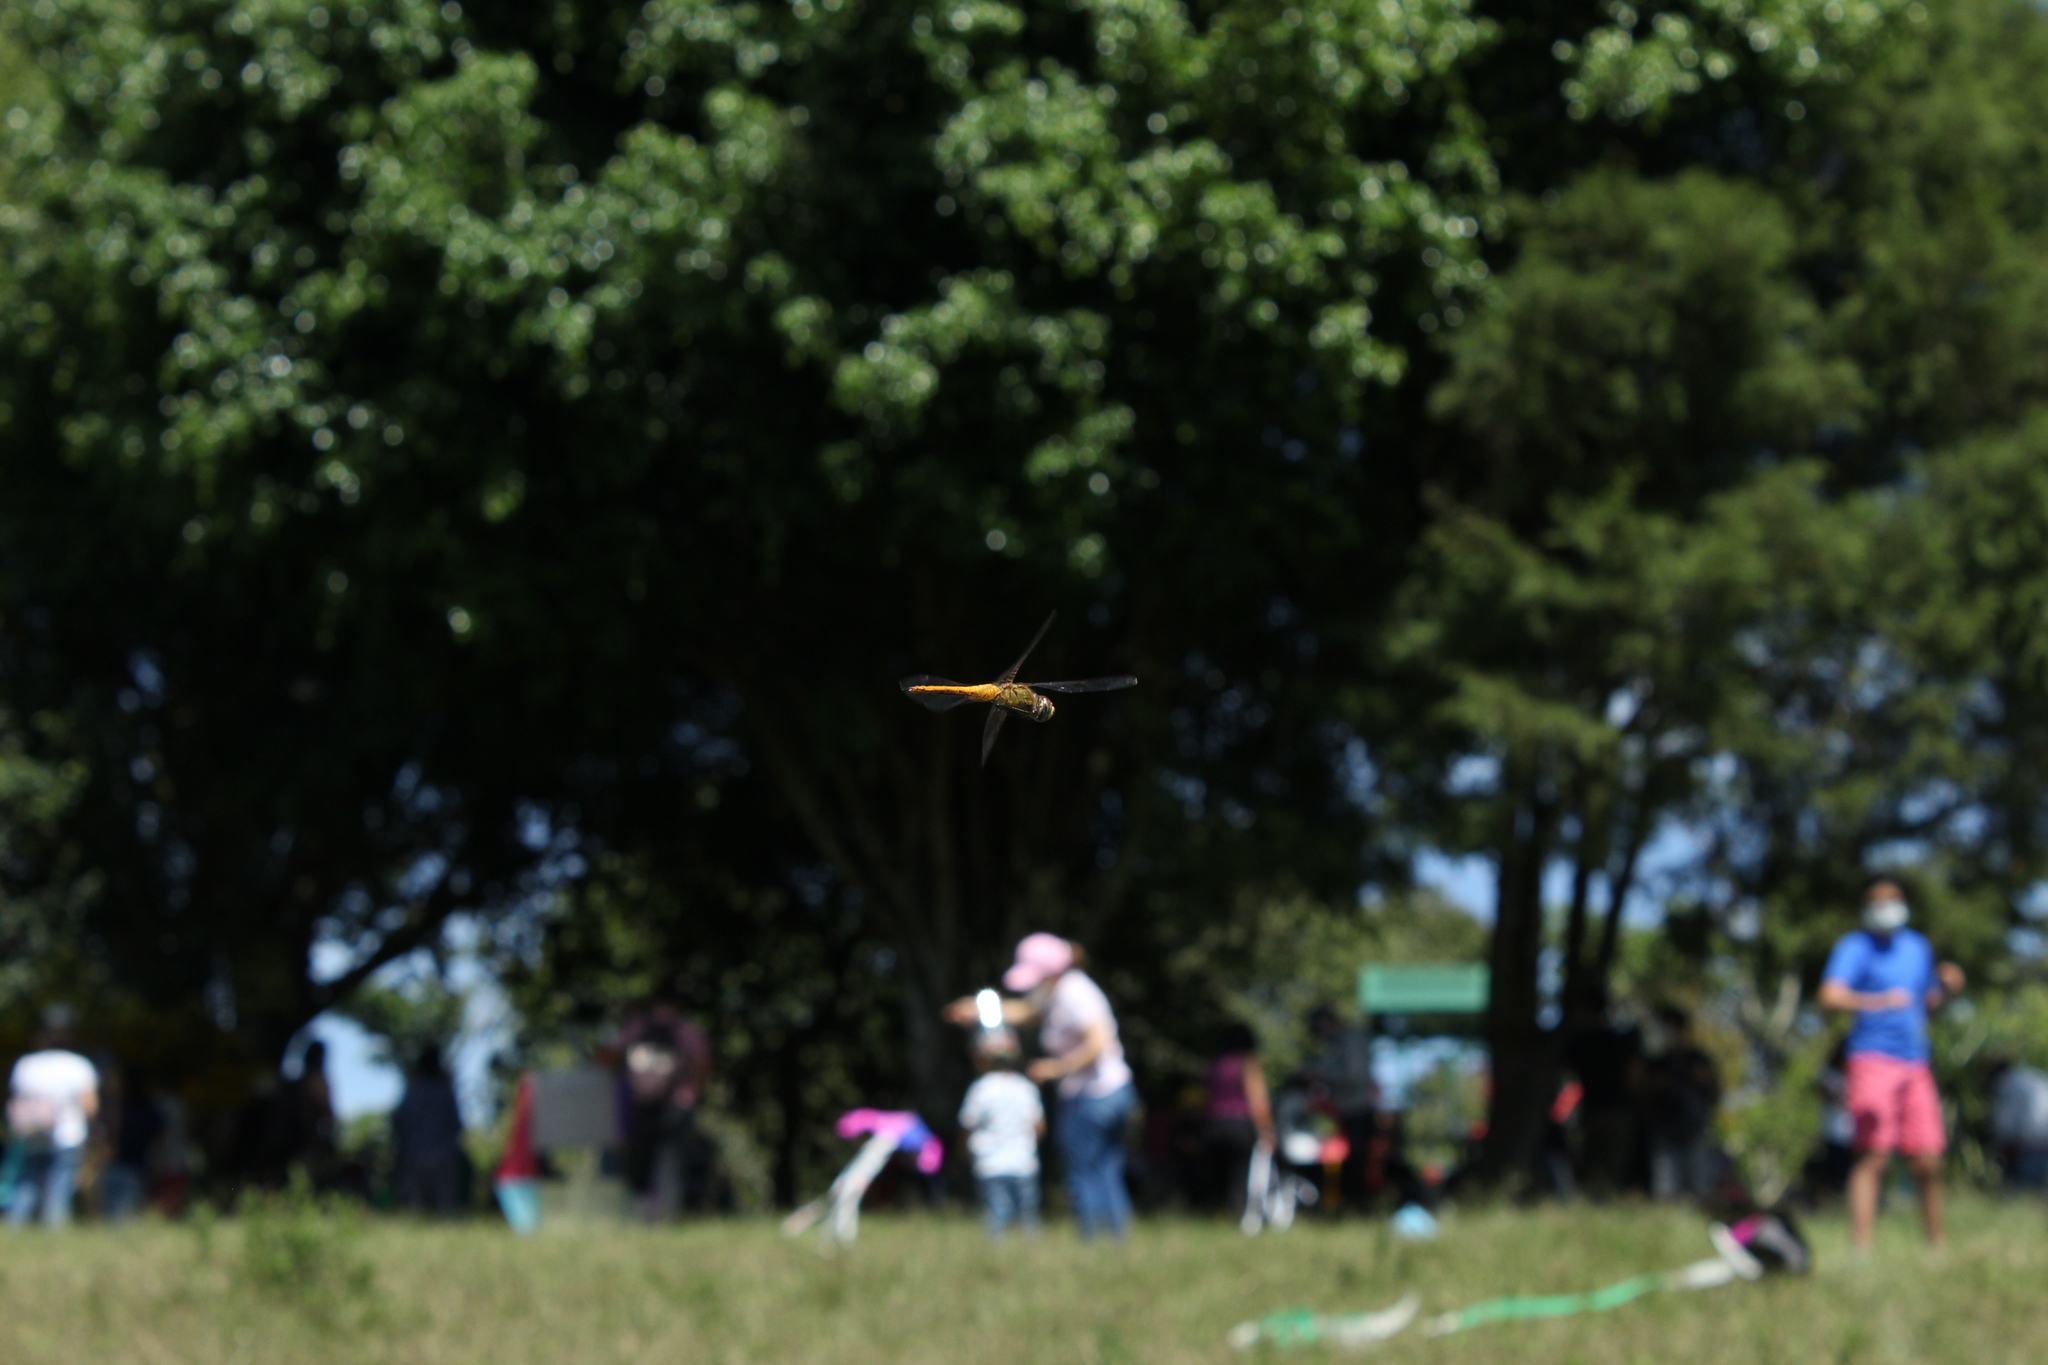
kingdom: Animalia
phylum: Arthropoda
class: Insecta
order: Odonata
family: Libellulidae
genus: Pantala
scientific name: Pantala flavescens
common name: Wandering glider
